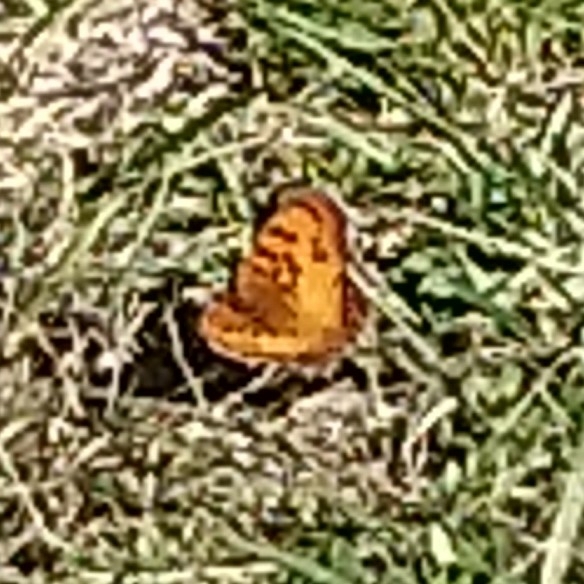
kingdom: Animalia
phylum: Arthropoda
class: Insecta
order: Lepidoptera
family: Nymphalidae
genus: Catacroptera
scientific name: Catacroptera cloanthe
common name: Pirate
